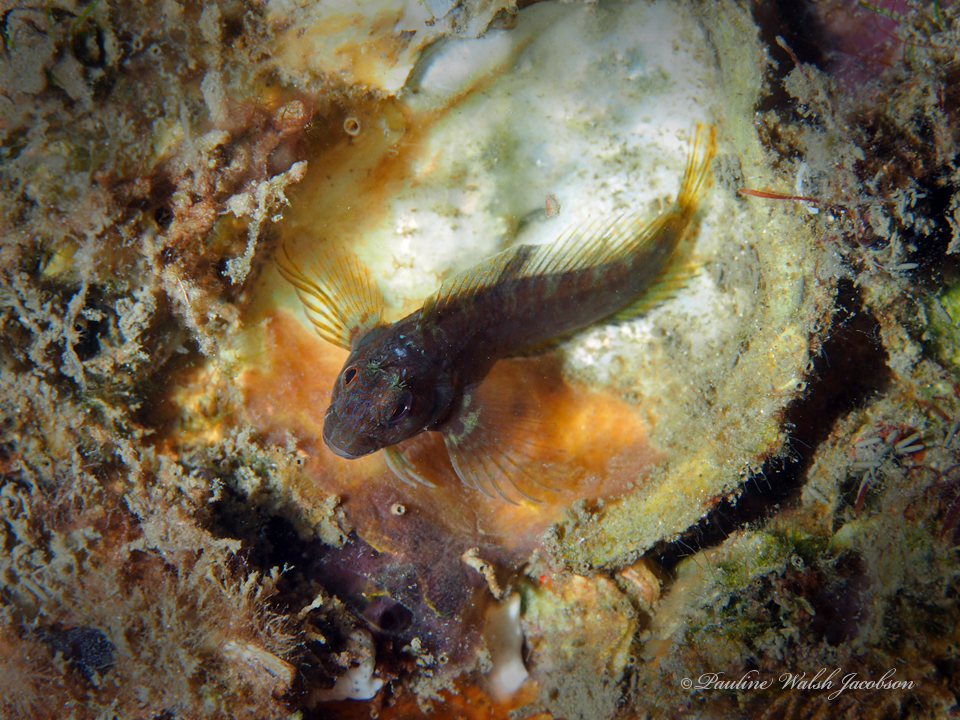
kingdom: Animalia
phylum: Chordata
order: Perciformes
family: Blenniidae
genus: Hypleurochilus
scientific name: Hypleurochilus pseudoaequipinnis
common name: Oyster blenny
